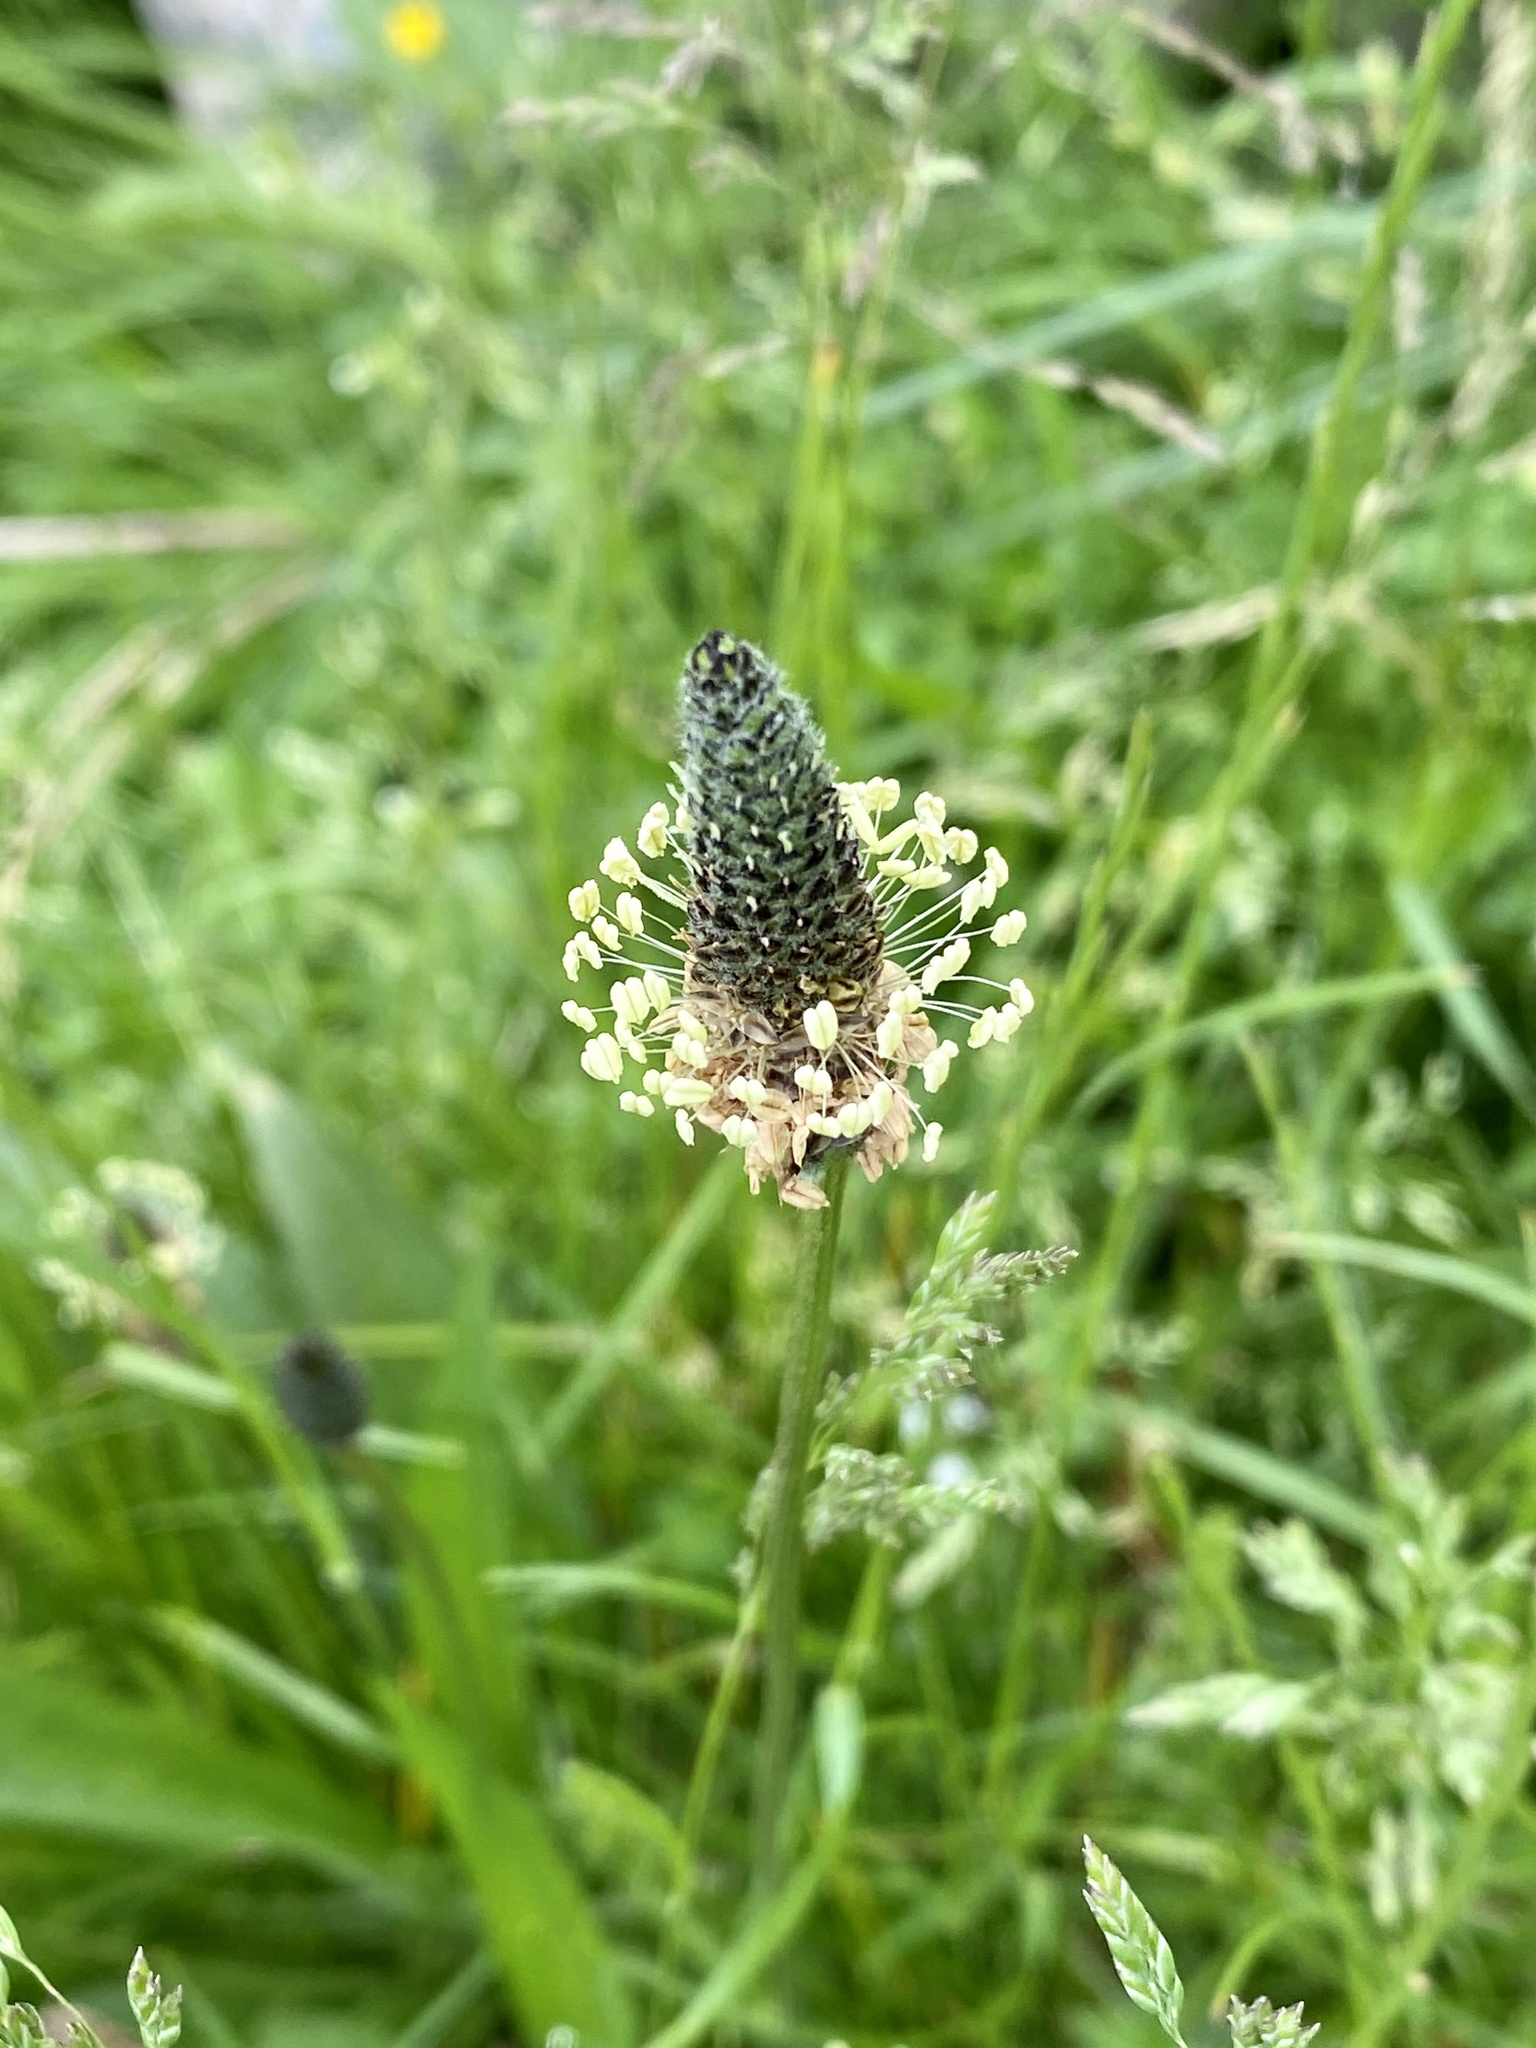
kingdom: Plantae
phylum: Tracheophyta
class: Magnoliopsida
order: Lamiales
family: Plantaginaceae
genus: Plantago
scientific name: Plantago lanceolata
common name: Ribwort plantain
